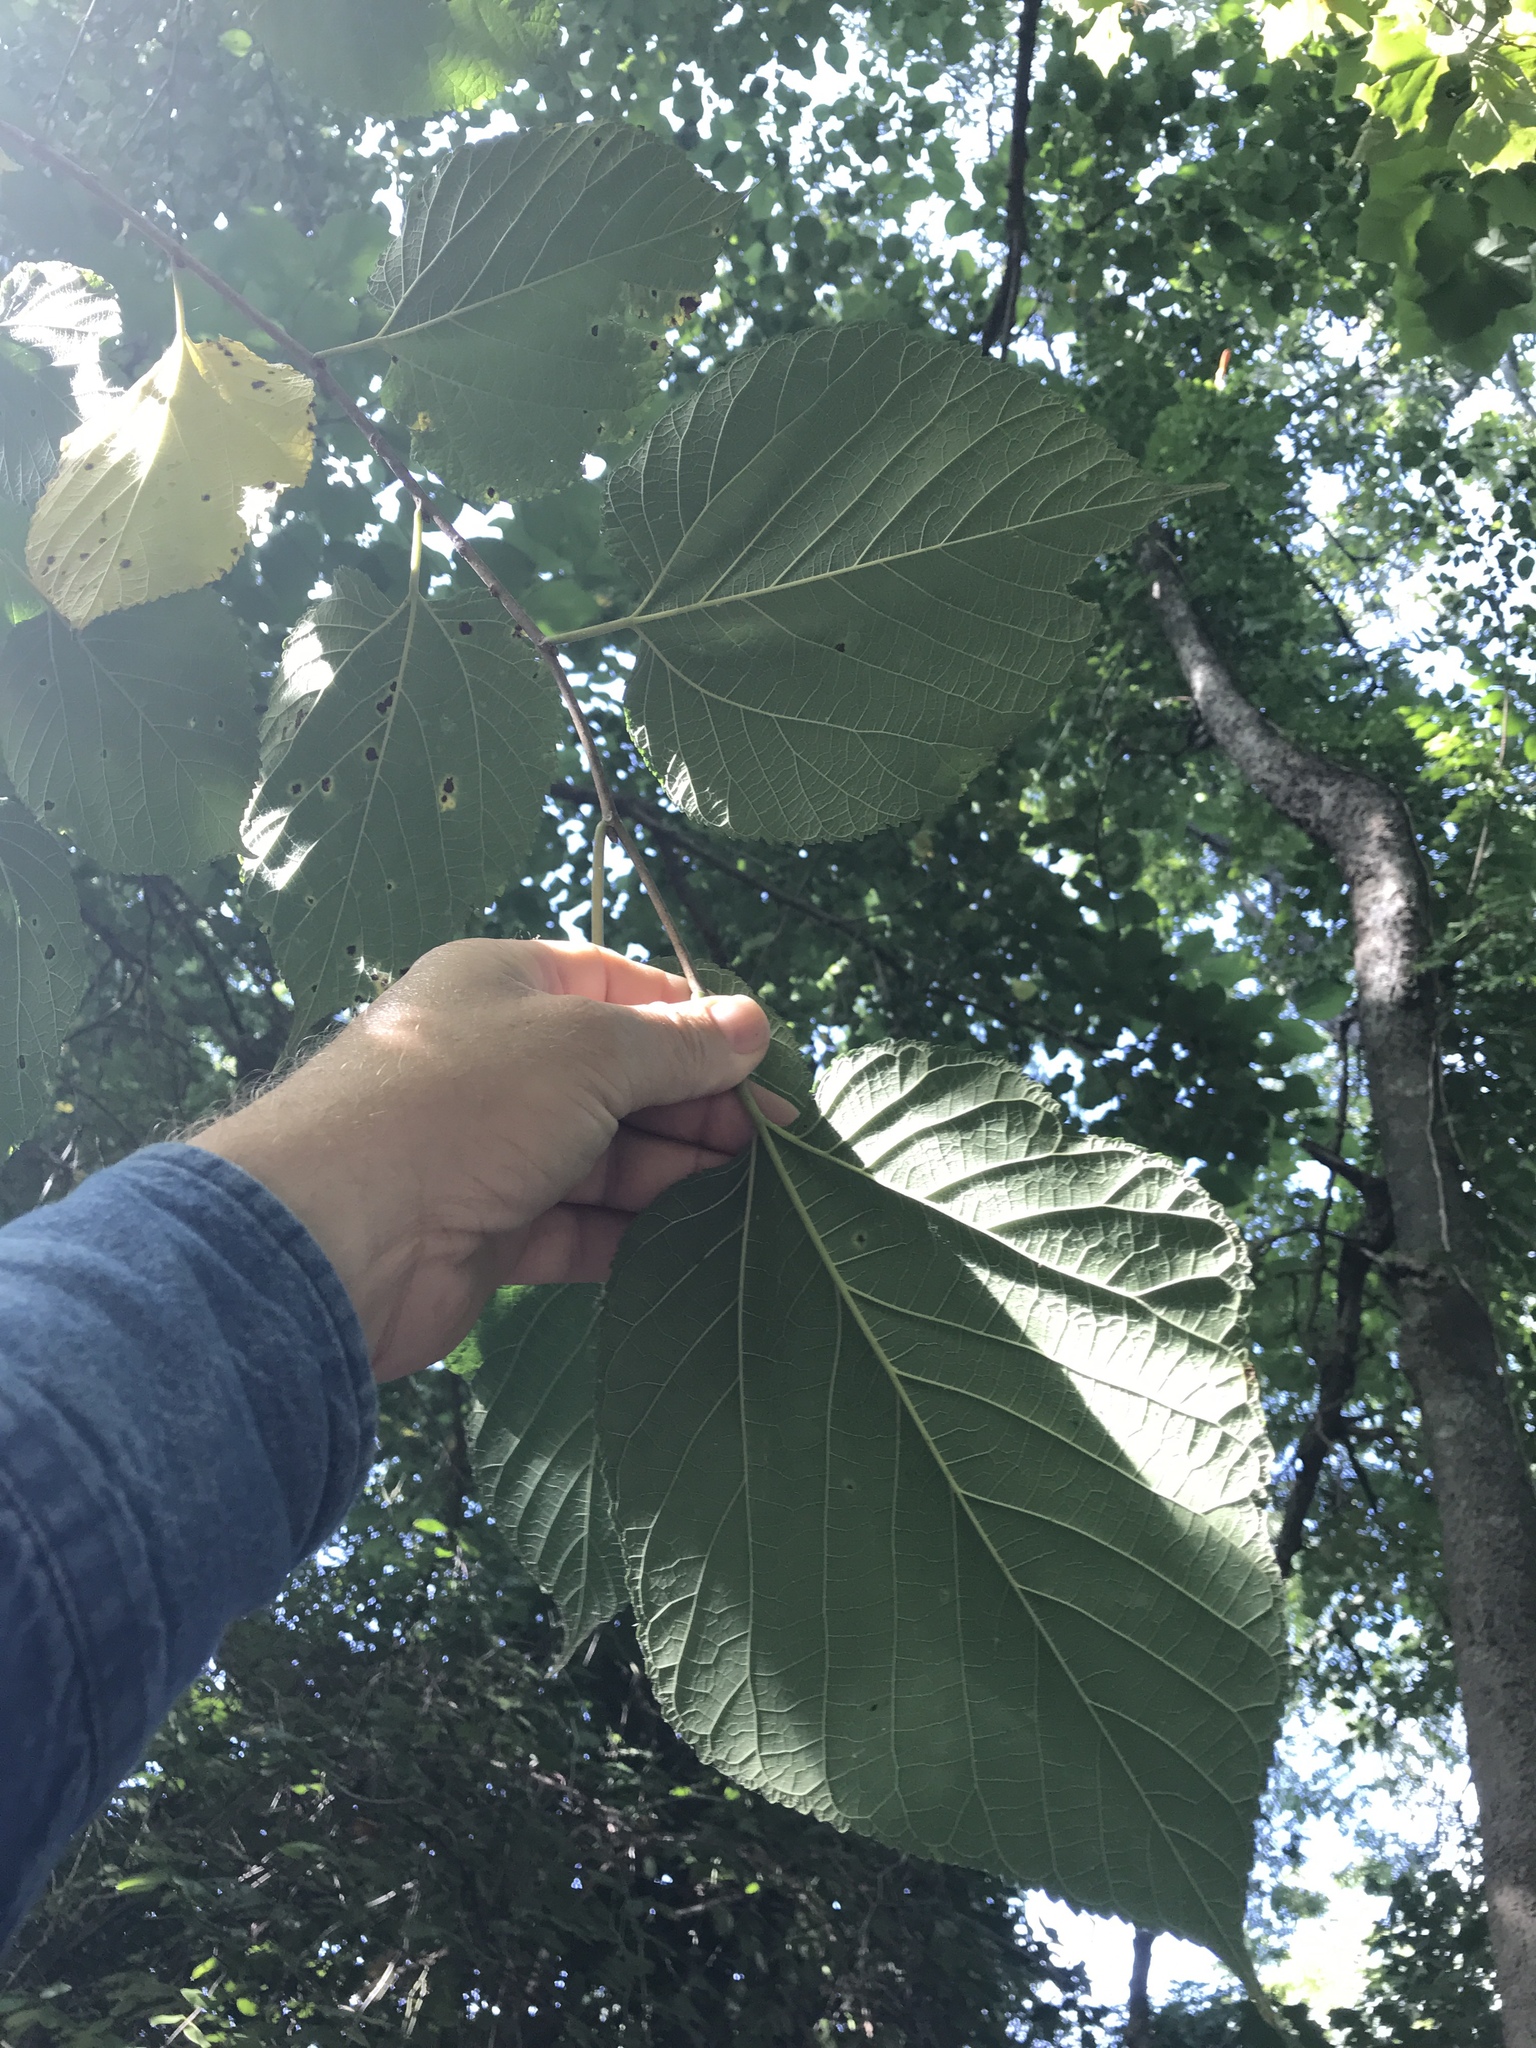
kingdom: Plantae
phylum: Tracheophyta
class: Magnoliopsida
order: Rosales
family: Moraceae
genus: Morus
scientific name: Morus rubra
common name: Red mulberry
